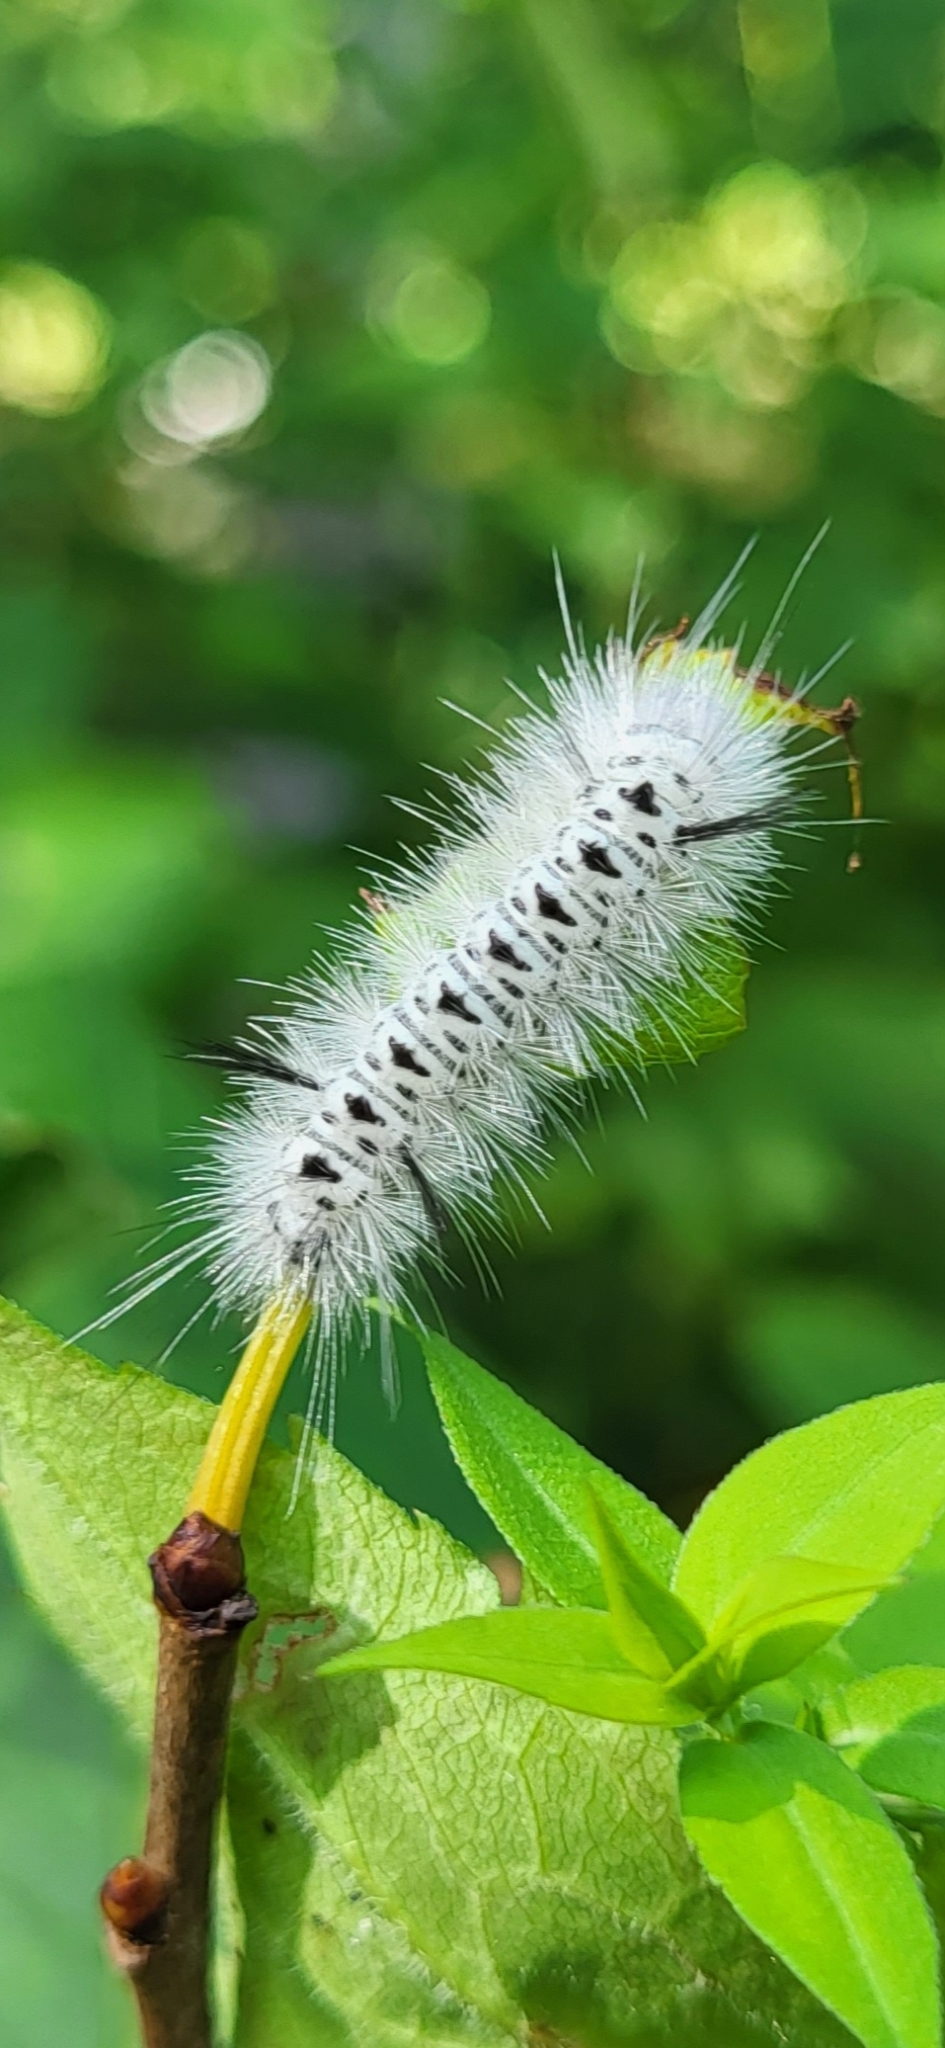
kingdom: Animalia
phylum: Arthropoda
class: Insecta
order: Lepidoptera
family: Erebidae
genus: Lophocampa
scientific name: Lophocampa caryae
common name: Hickory tussock moth
